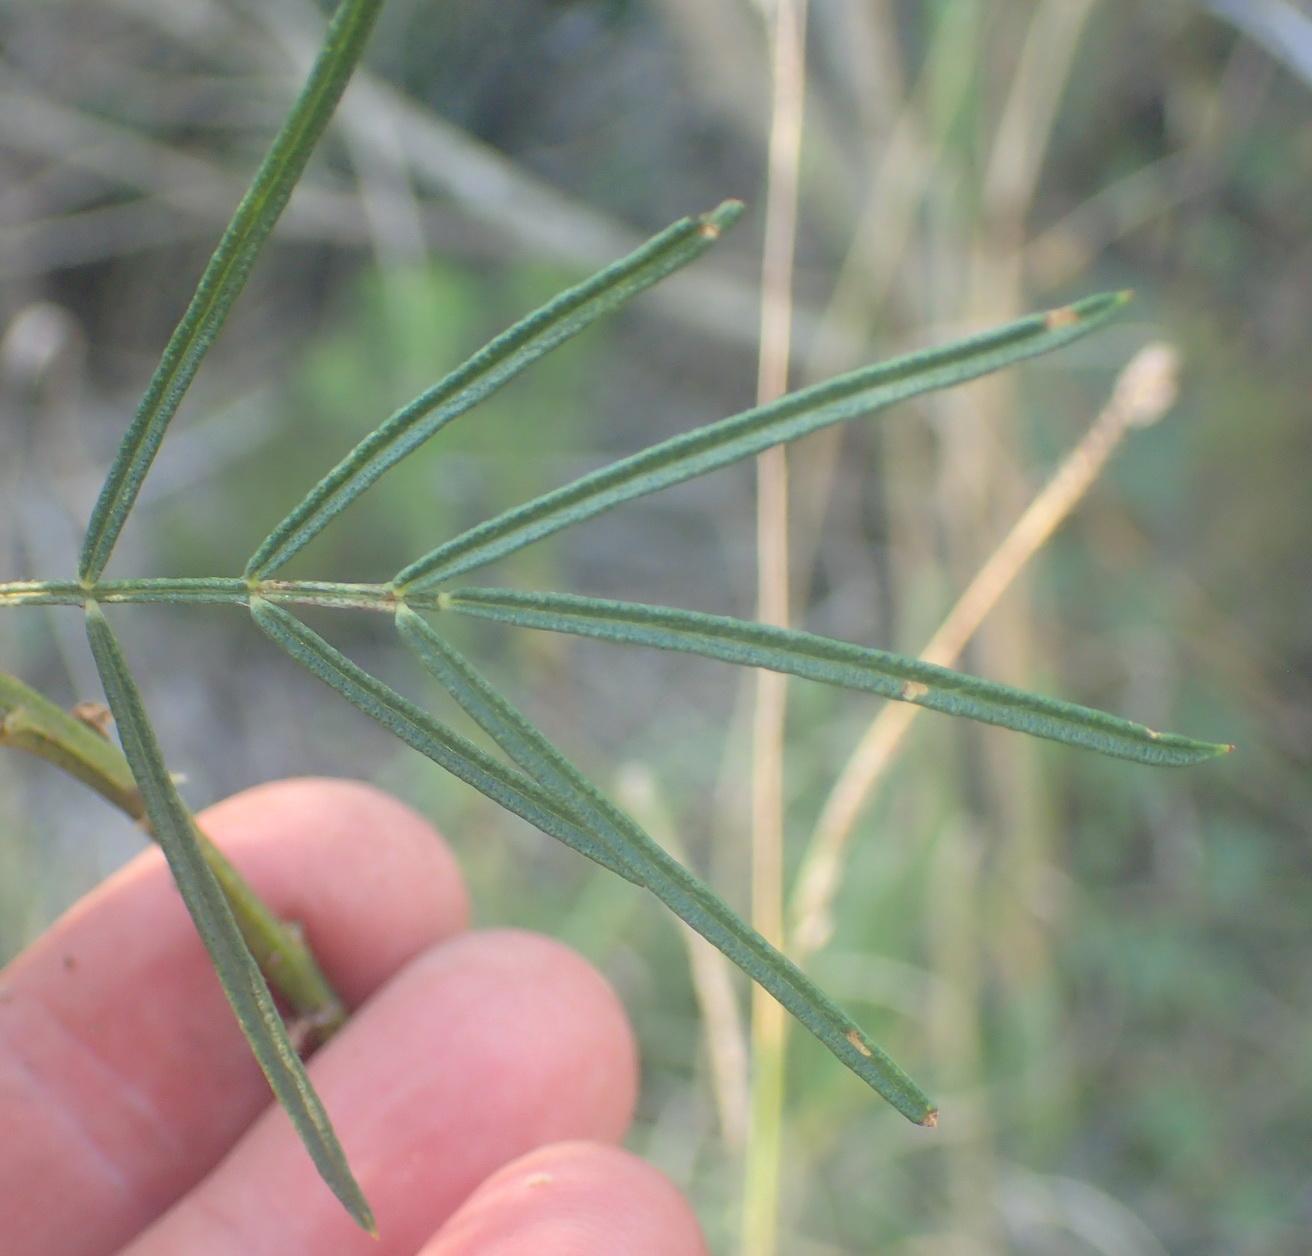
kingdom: Plantae
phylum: Tracheophyta
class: Magnoliopsida
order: Fabales
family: Fabaceae
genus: Psoralea
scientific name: Psoralea affinis
